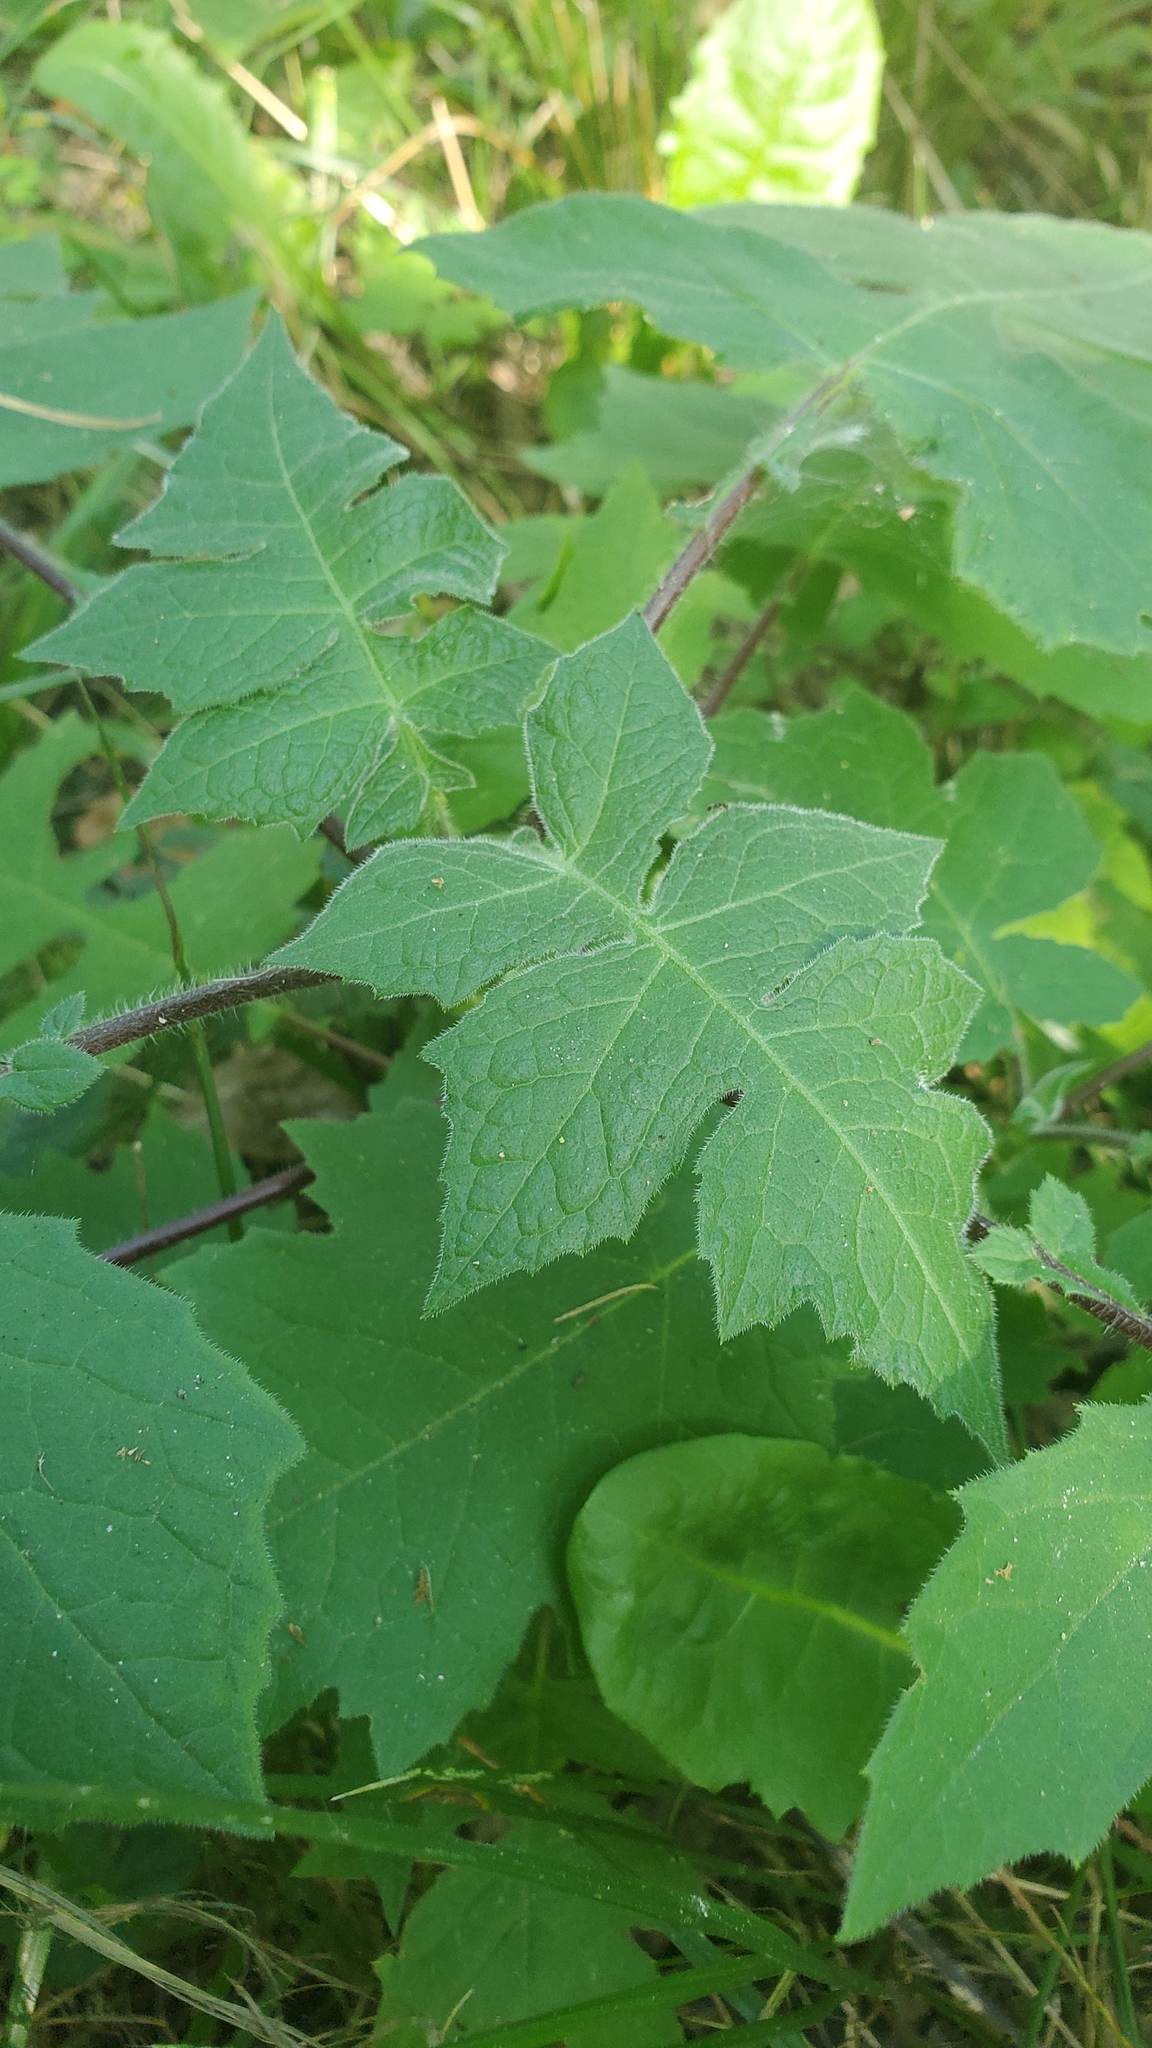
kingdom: Plantae
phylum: Tracheophyta
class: Magnoliopsida
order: Asterales
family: Asteraceae
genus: Polymnia
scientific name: Polymnia canadensis
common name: Pale-flowered leafcup
